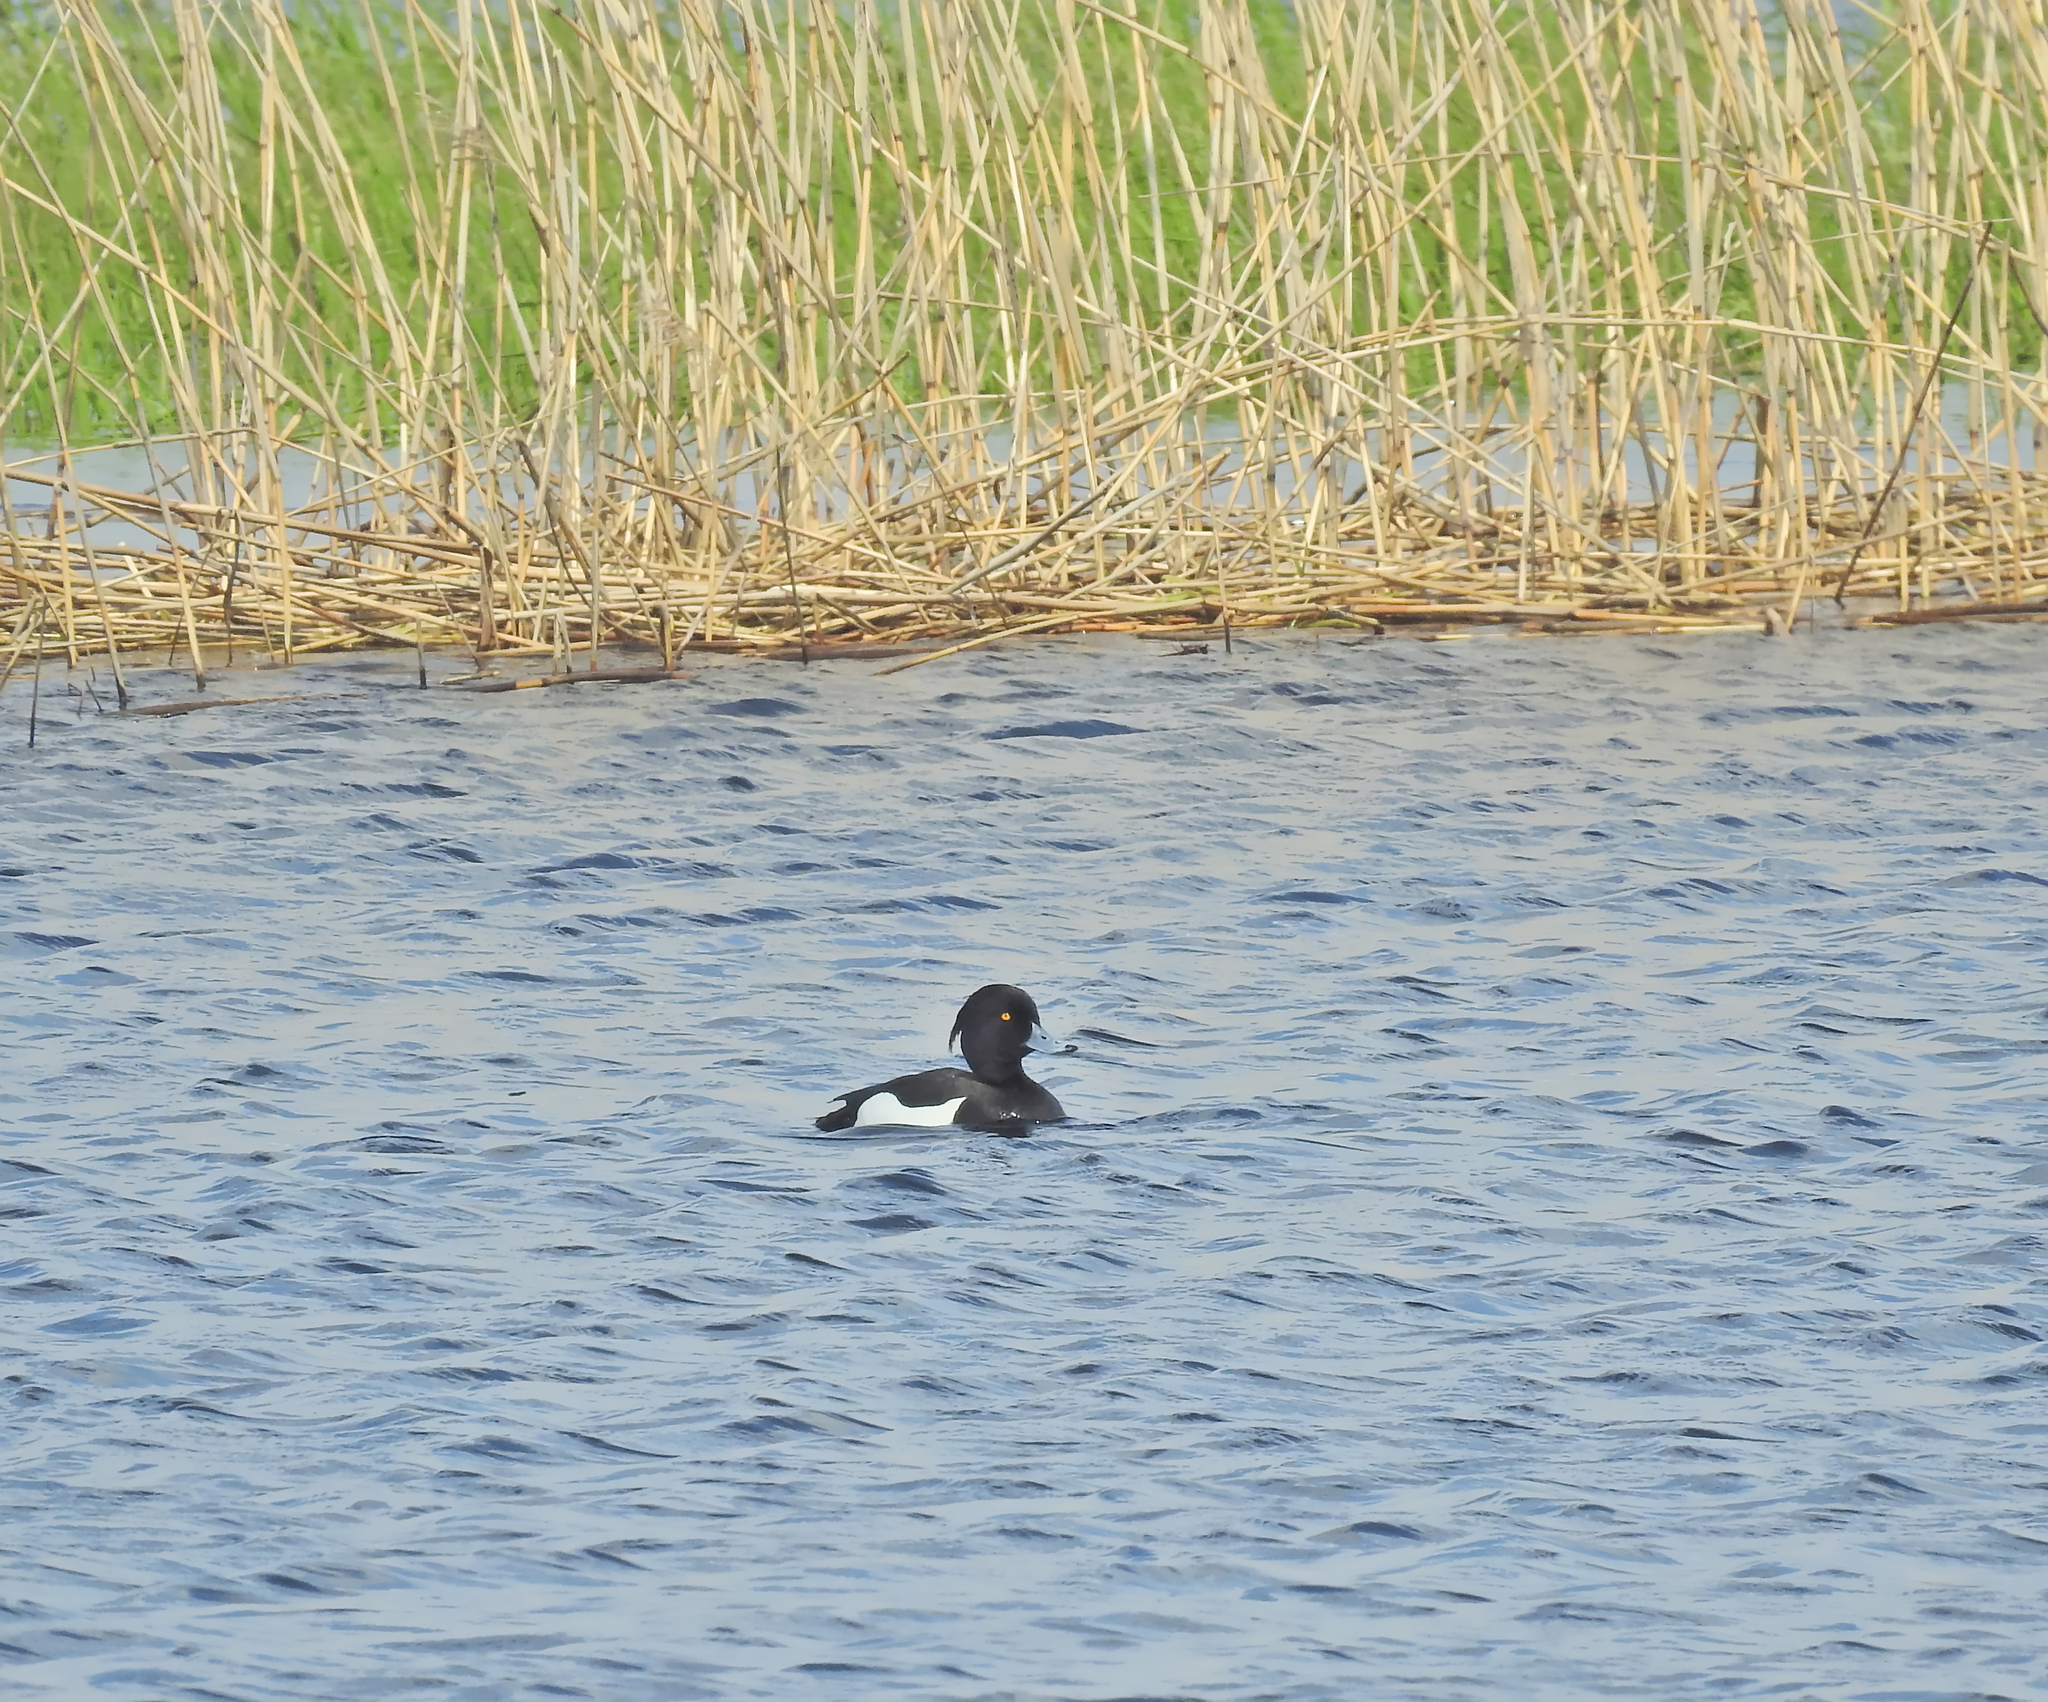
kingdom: Animalia
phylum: Chordata
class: Aves
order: Anseriformes
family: Anatidae
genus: Aythya
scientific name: Aythya fuligula
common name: Tufted duck
